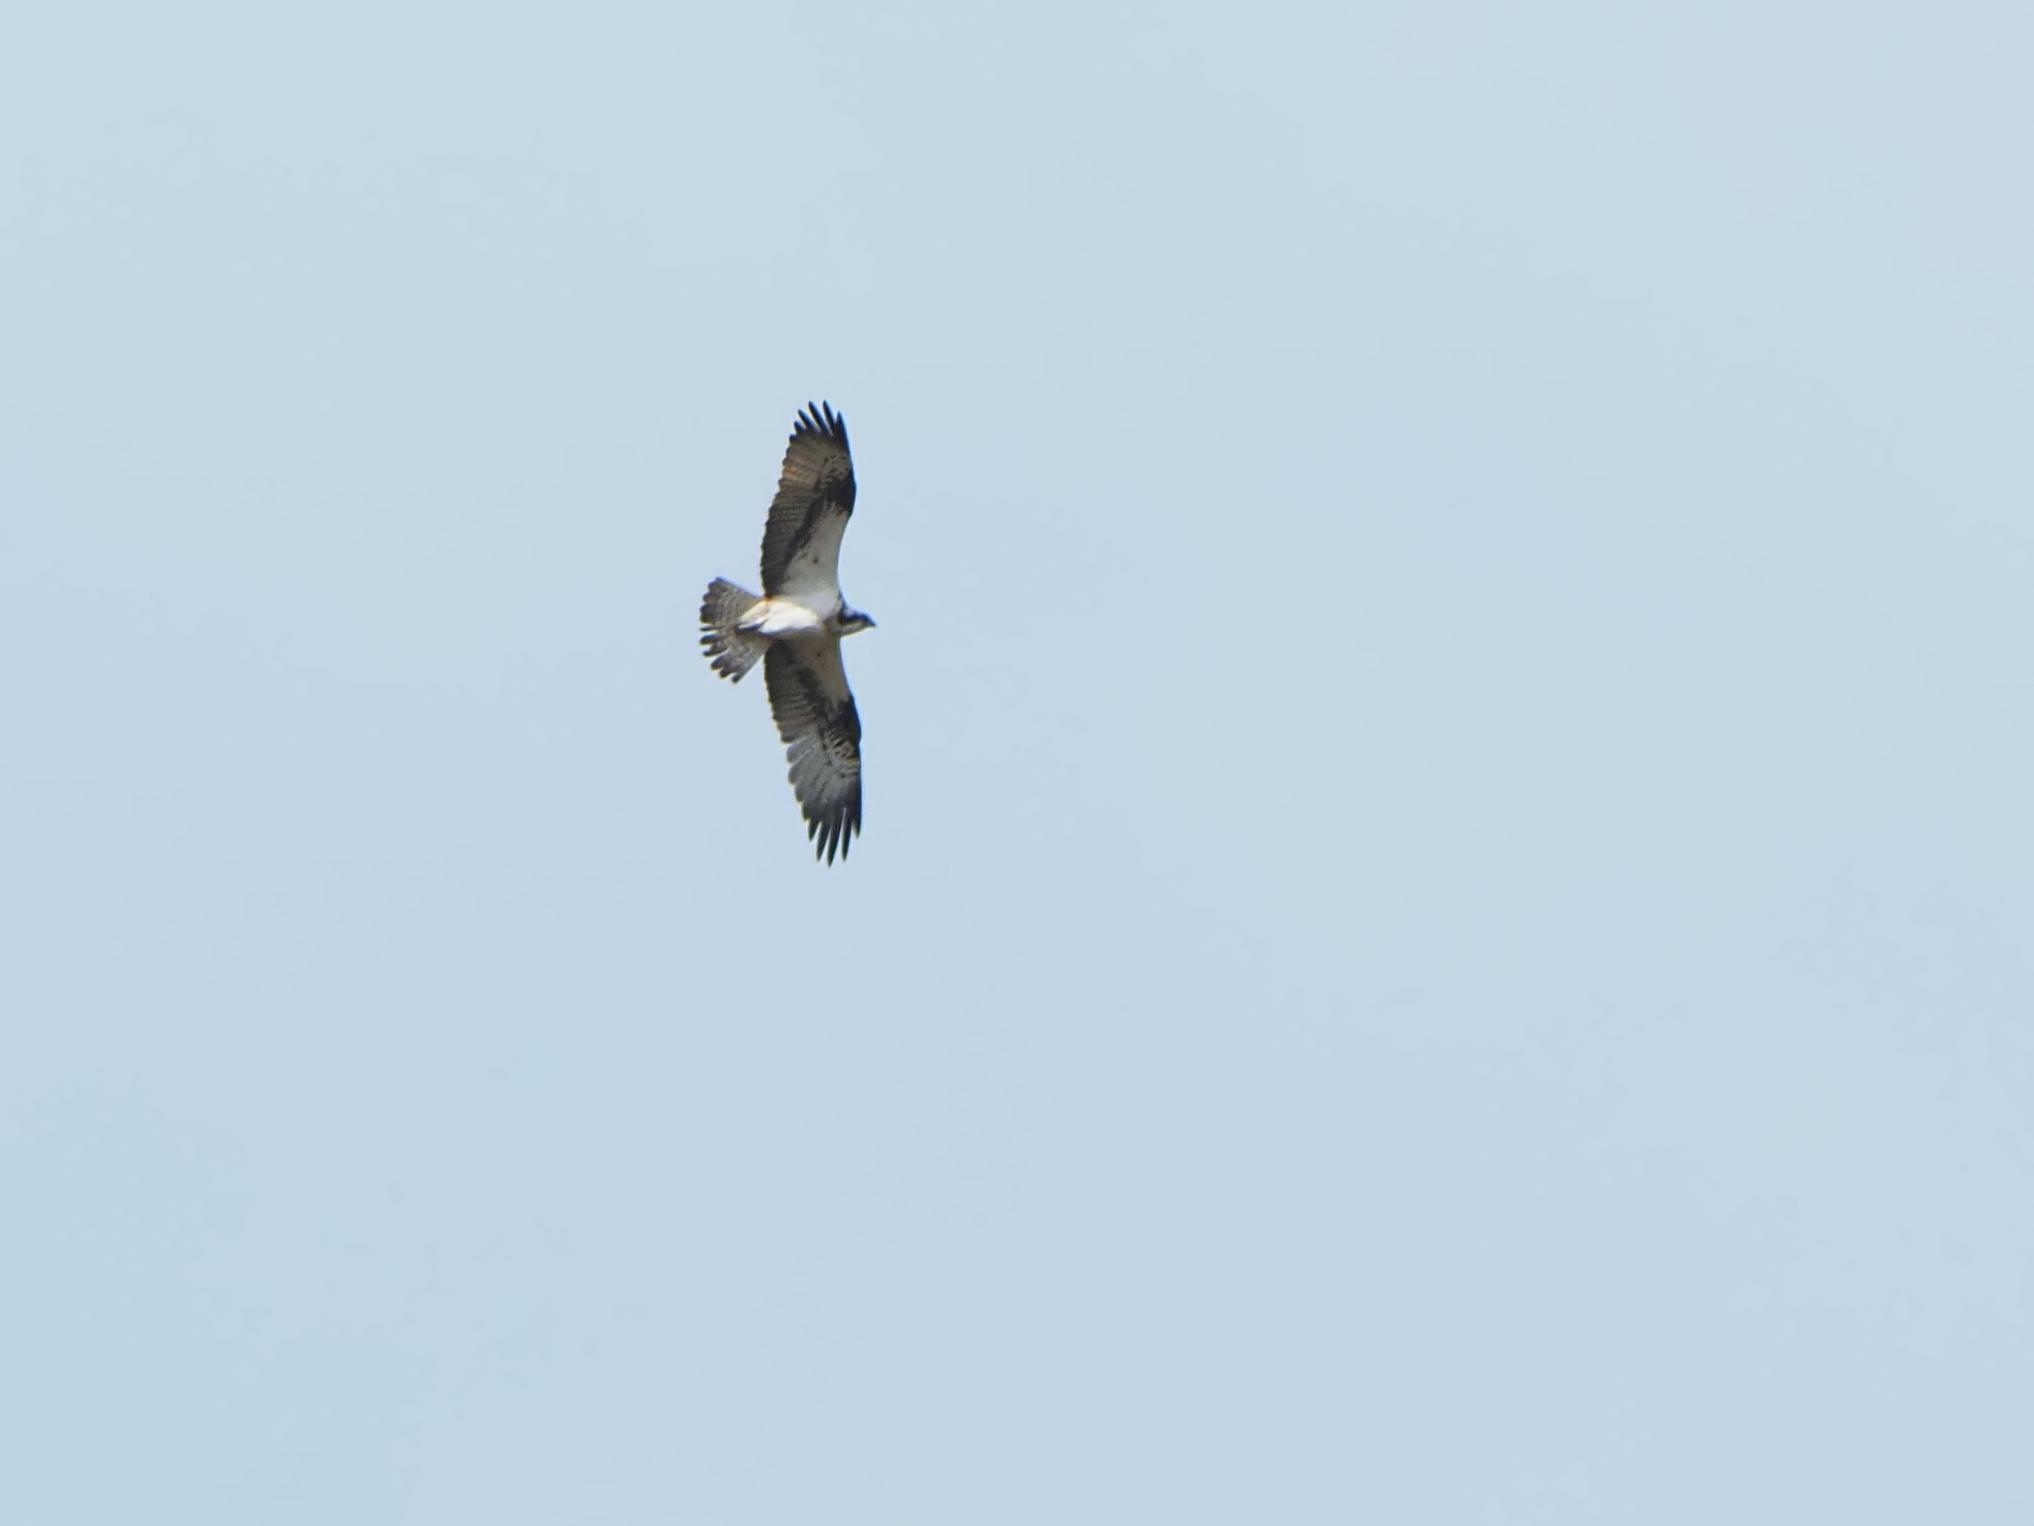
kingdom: Animalia
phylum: Chordata
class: Aves
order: Accipitriformes
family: Pandionidae
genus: Pandion
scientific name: Pandion haliaetus
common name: Osprey
